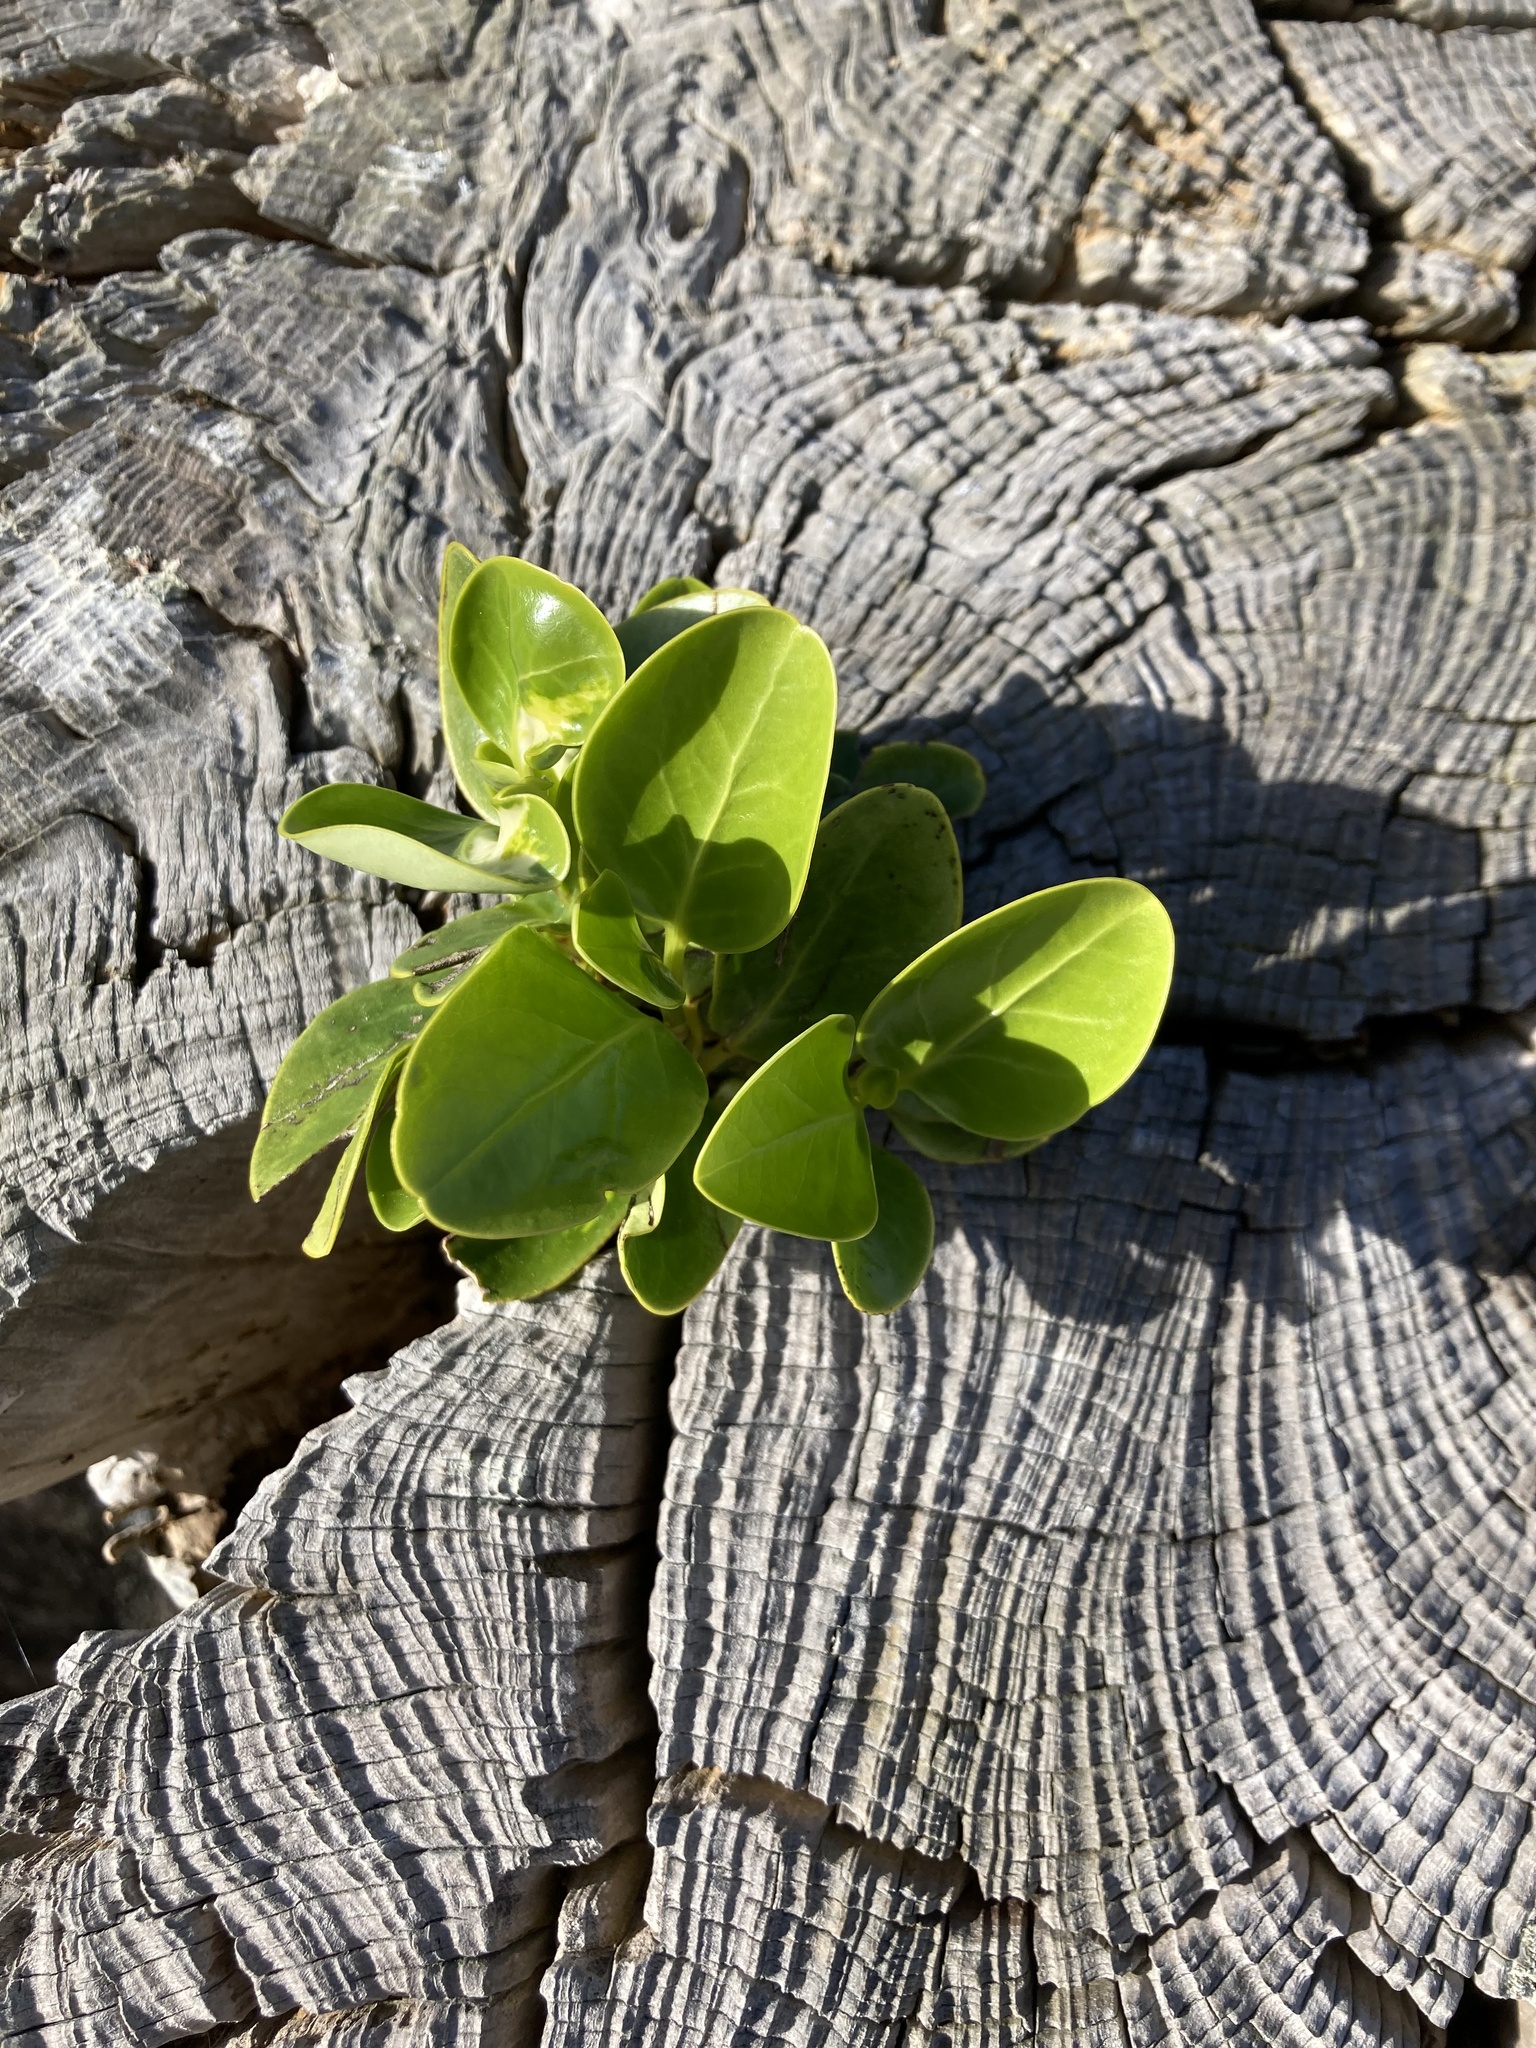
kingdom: Plantae
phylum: Tracheophyta
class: Magnoliopsida
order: Apiales
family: Griseliniaceae
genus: Griselinia
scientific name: Griselinia littoralis
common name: New zealand broadleaf
